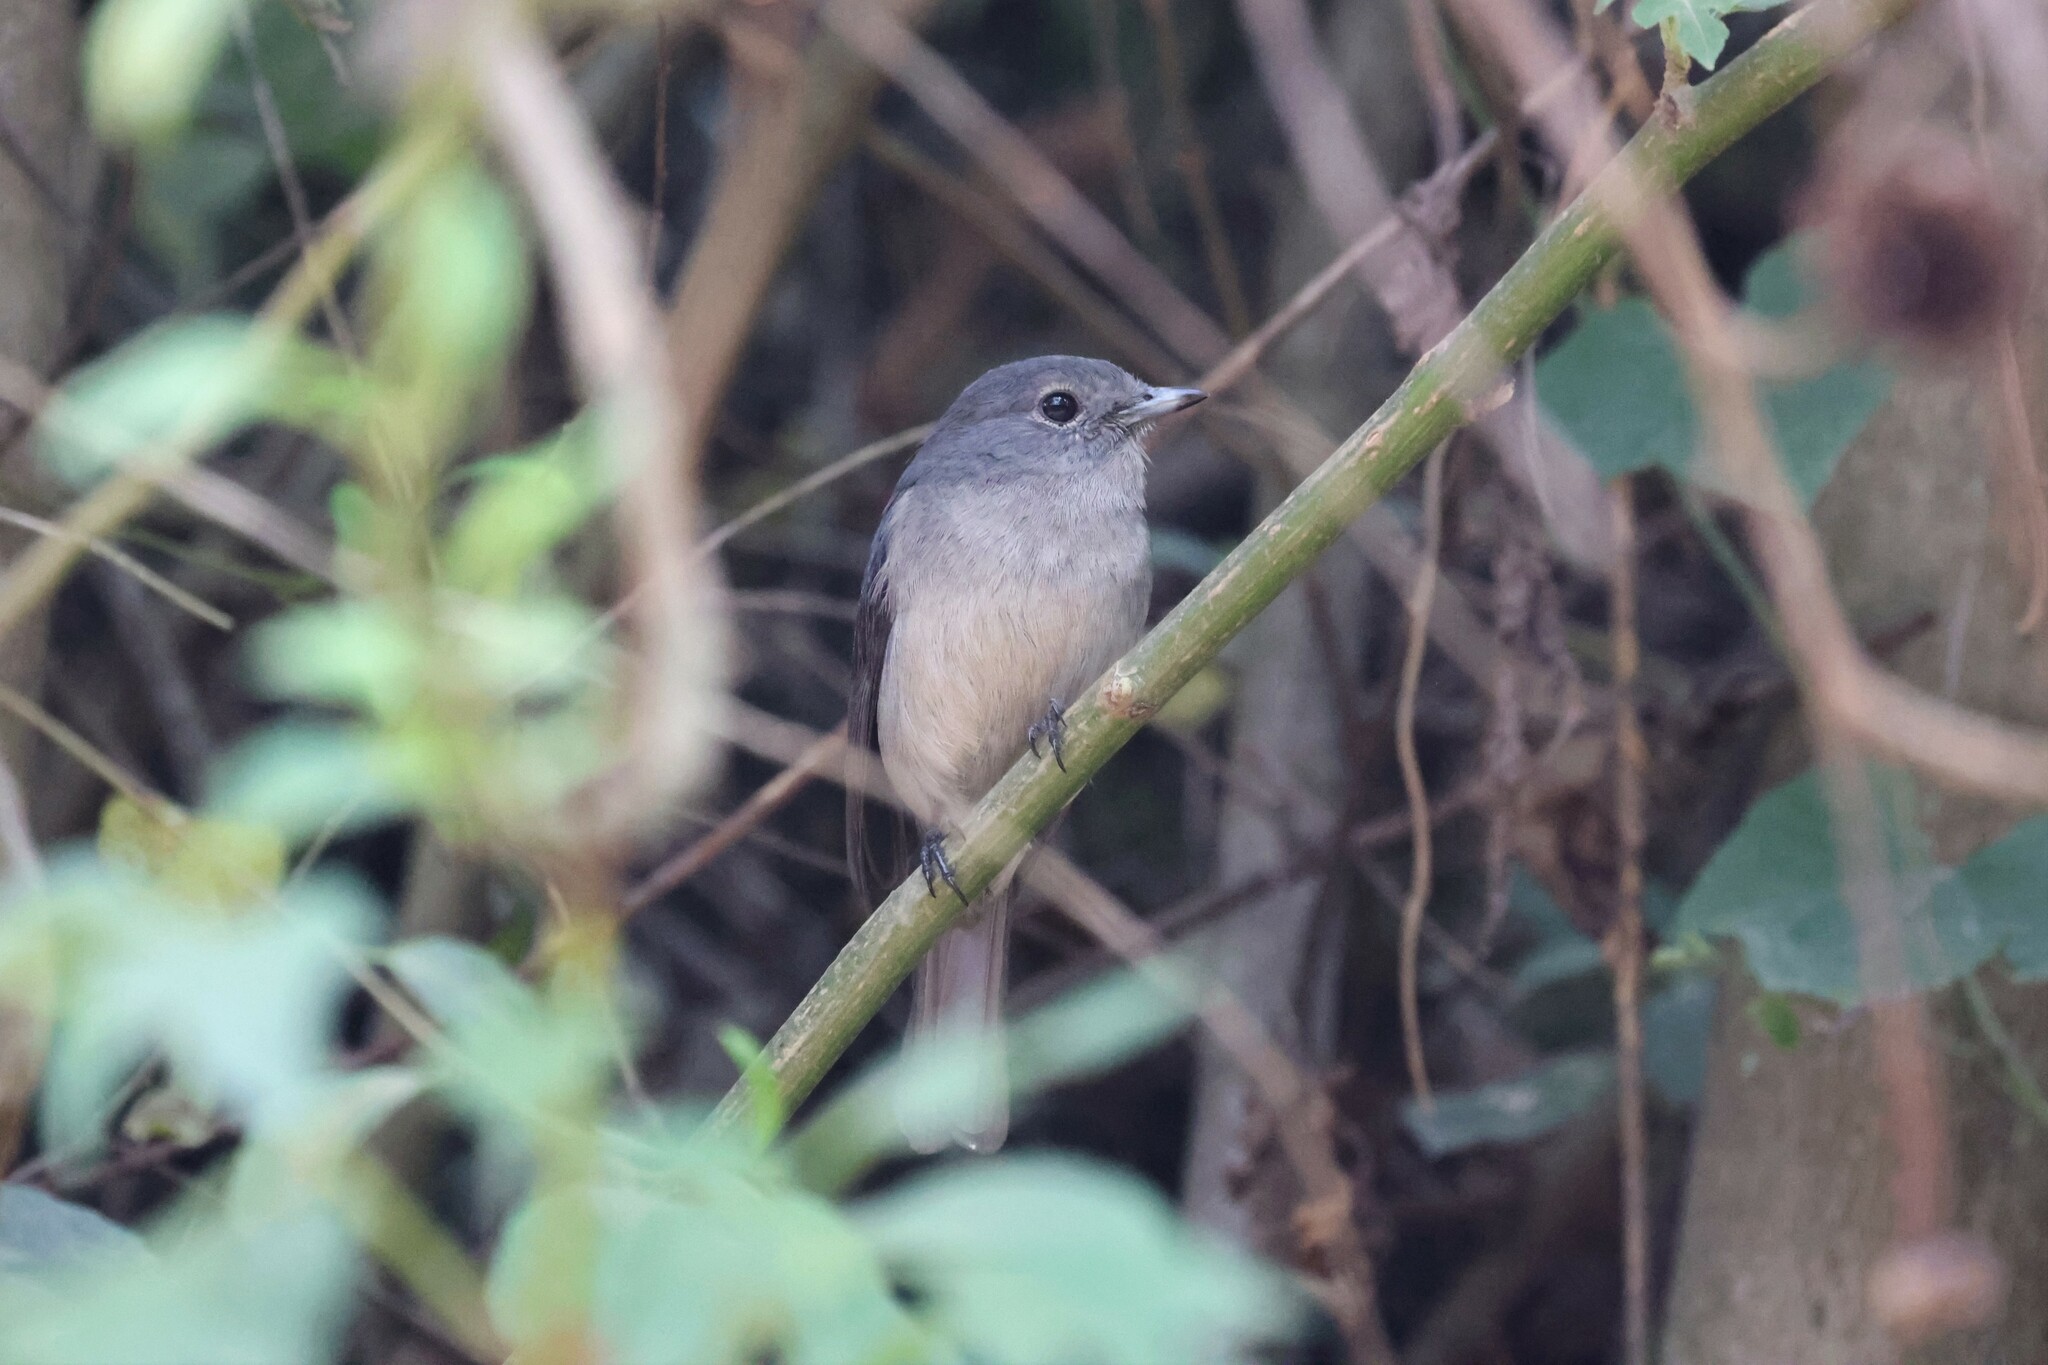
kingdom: Animalia
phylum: Chordata
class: Aves
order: Passeriformes
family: Muscicapidae
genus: Dioptrornis
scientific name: Dioptrornis fischeri
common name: White-eyed slaty flycatcher
